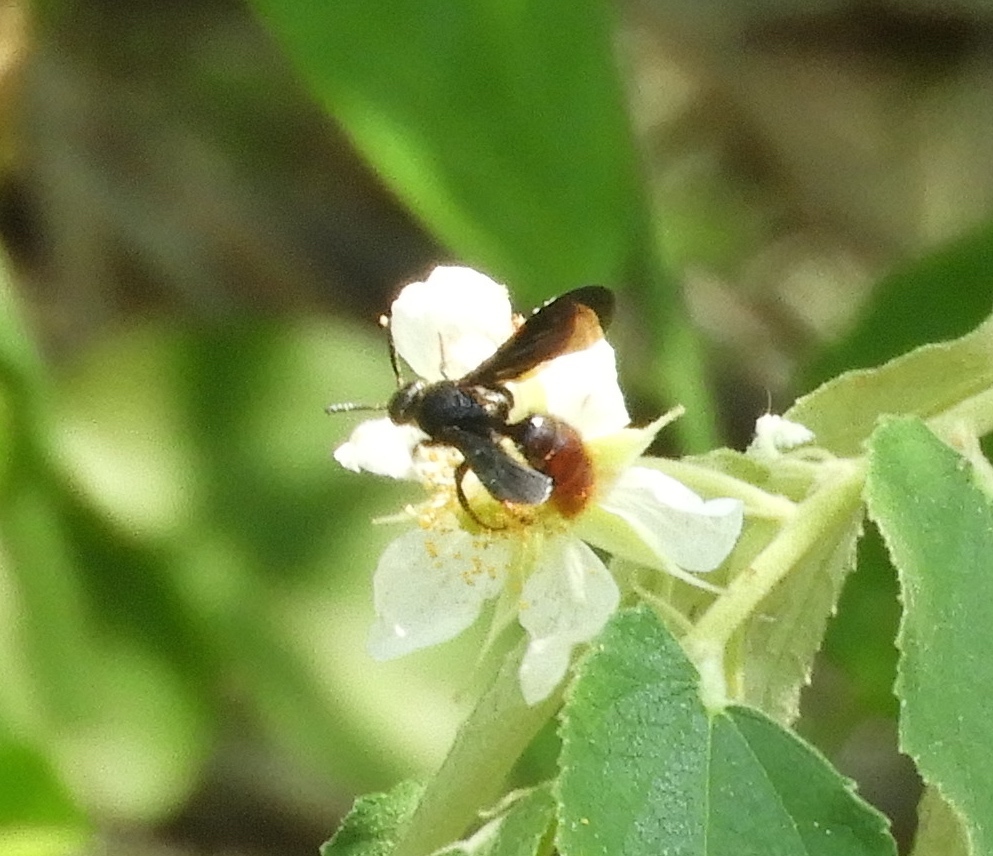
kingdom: Animalia
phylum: Arthropoda
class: Insecta
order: Hymenoptera
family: Scoliidae
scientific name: Scoliidae
